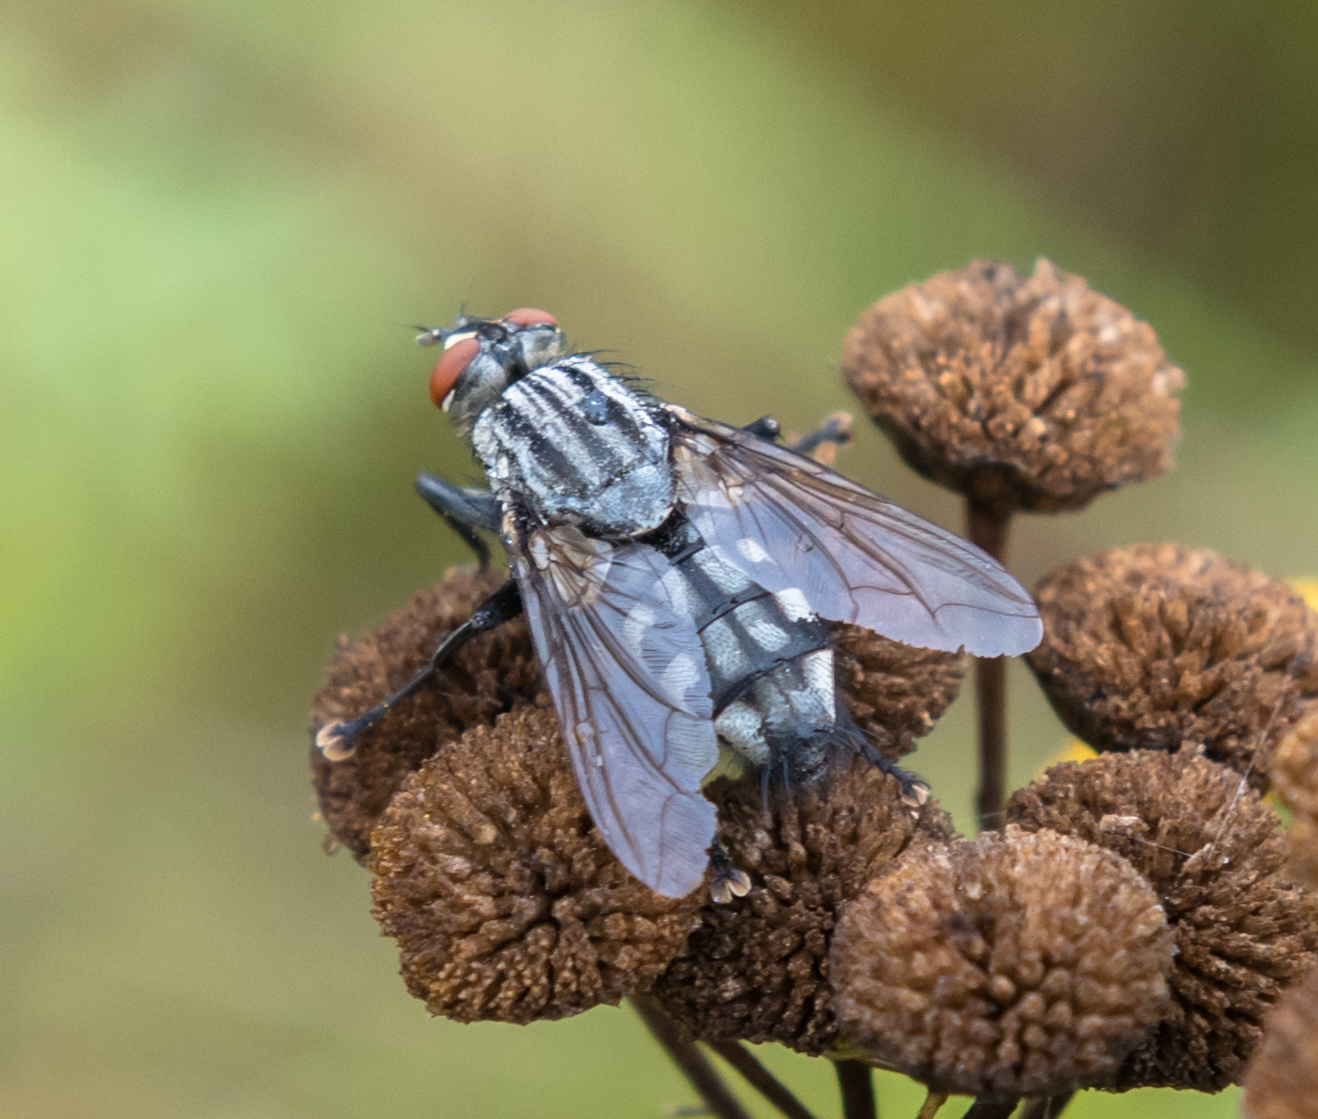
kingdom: Animalia
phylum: Arthropoda
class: Insecta
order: Diptera
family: Sarcophagidae
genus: Sarcophaga
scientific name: Sarcophaga
